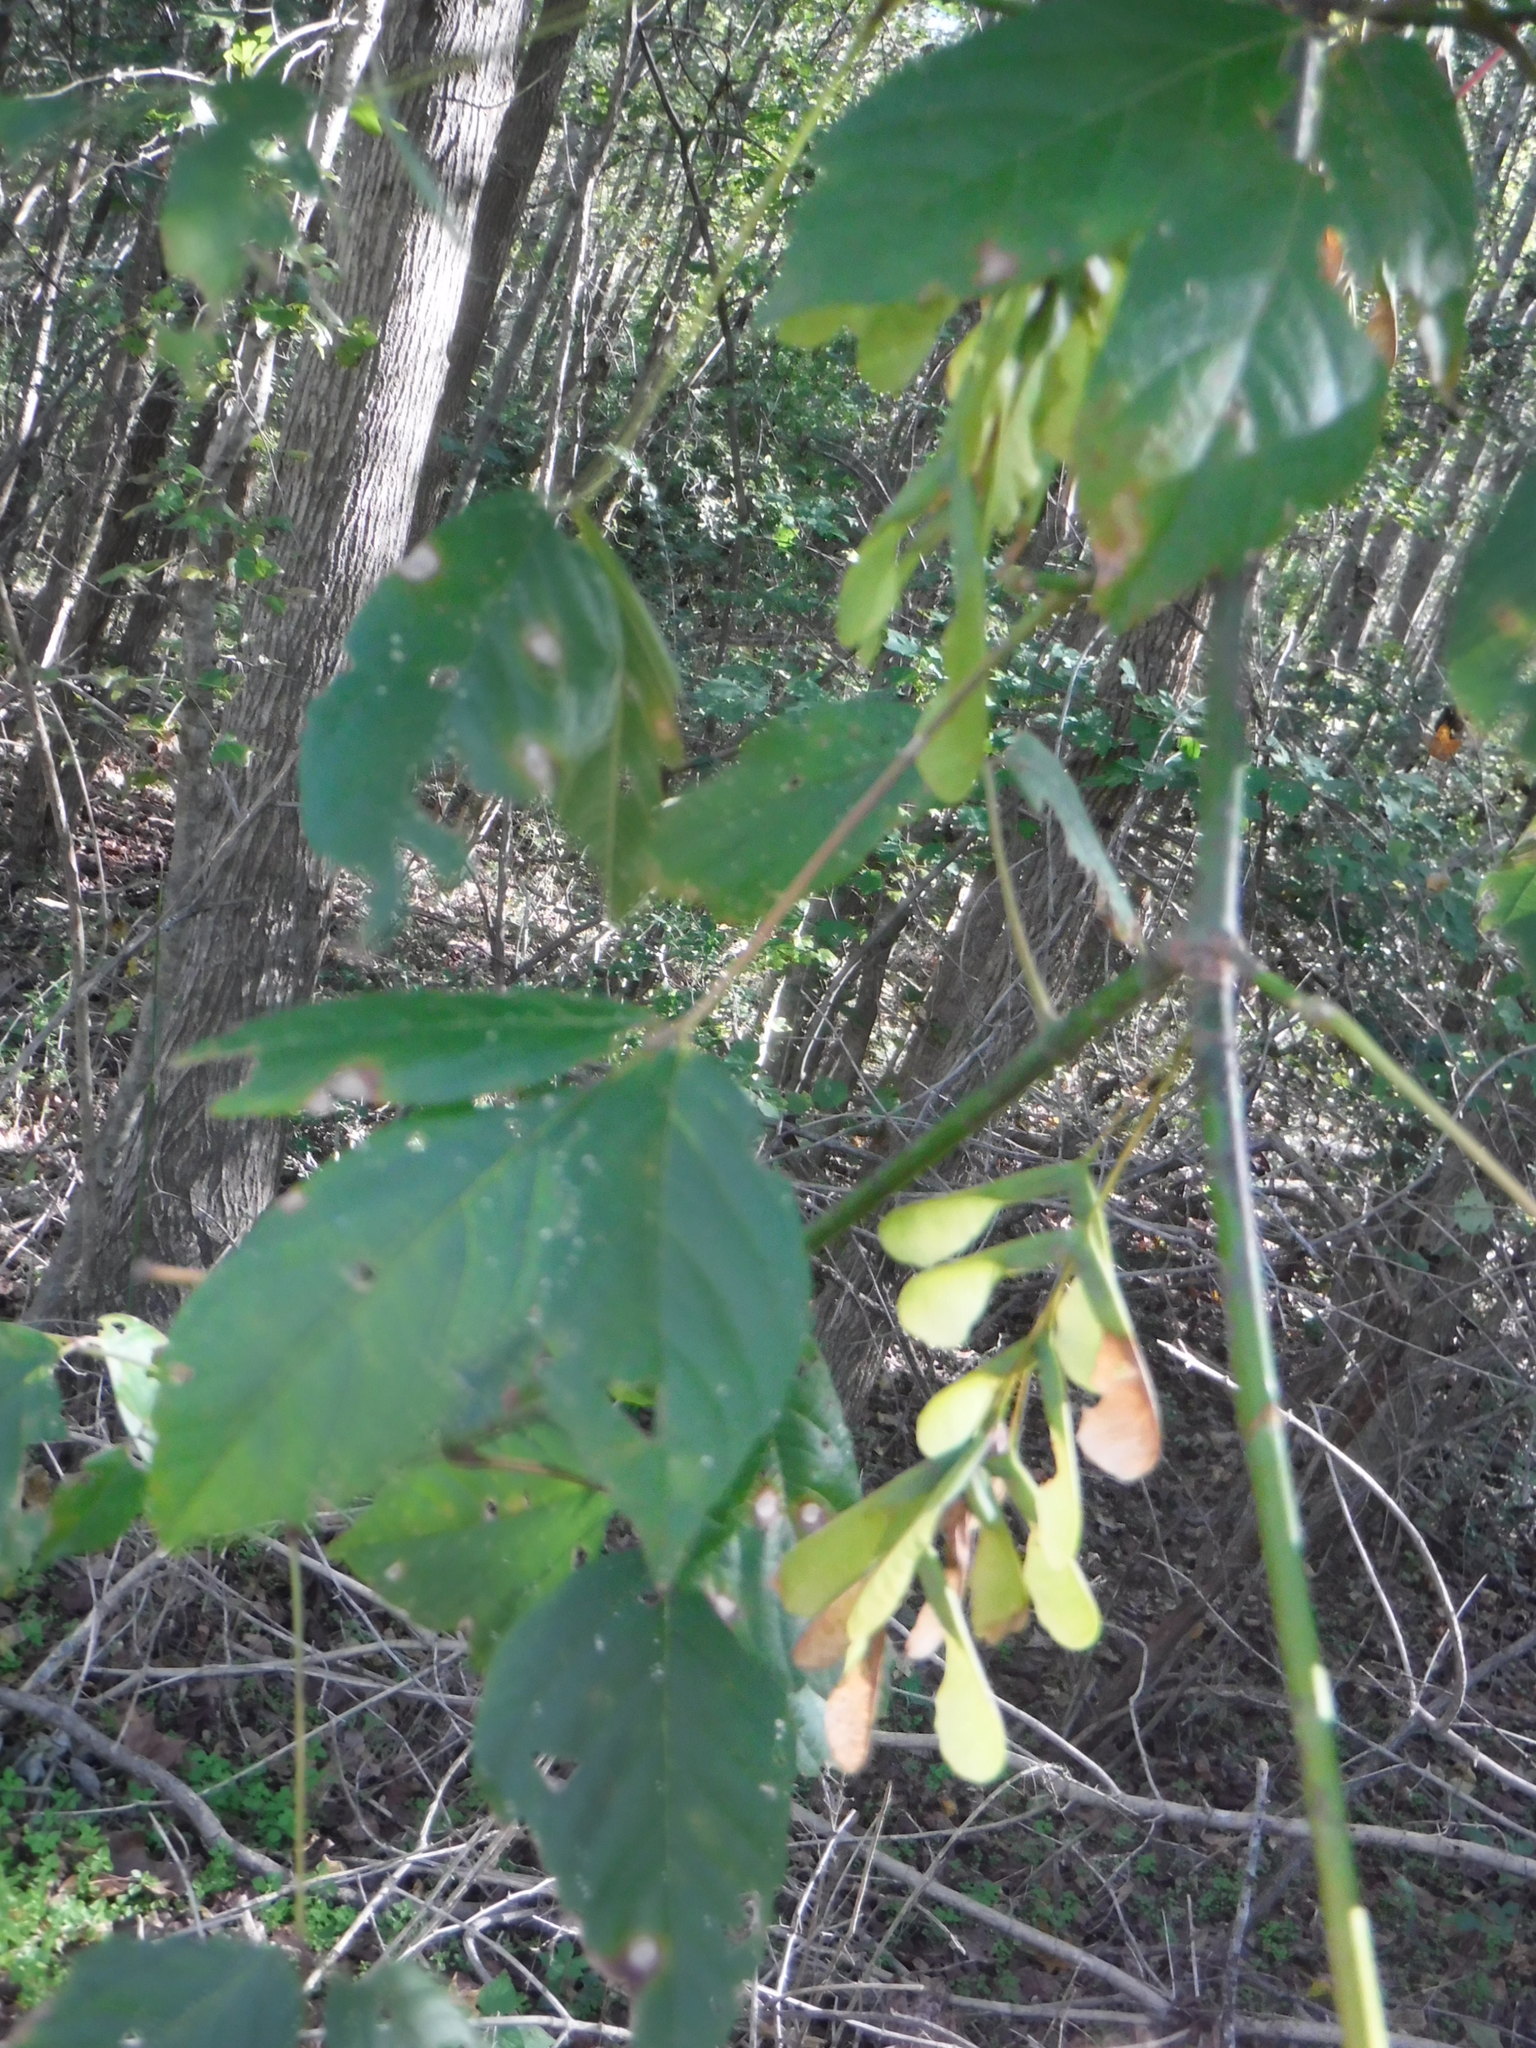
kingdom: Plantae
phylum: Tracheophyta
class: Magnoliopsida
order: Sapindales
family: Sapindaceae
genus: Acer
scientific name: Acer negundo
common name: Ashleaf maple
